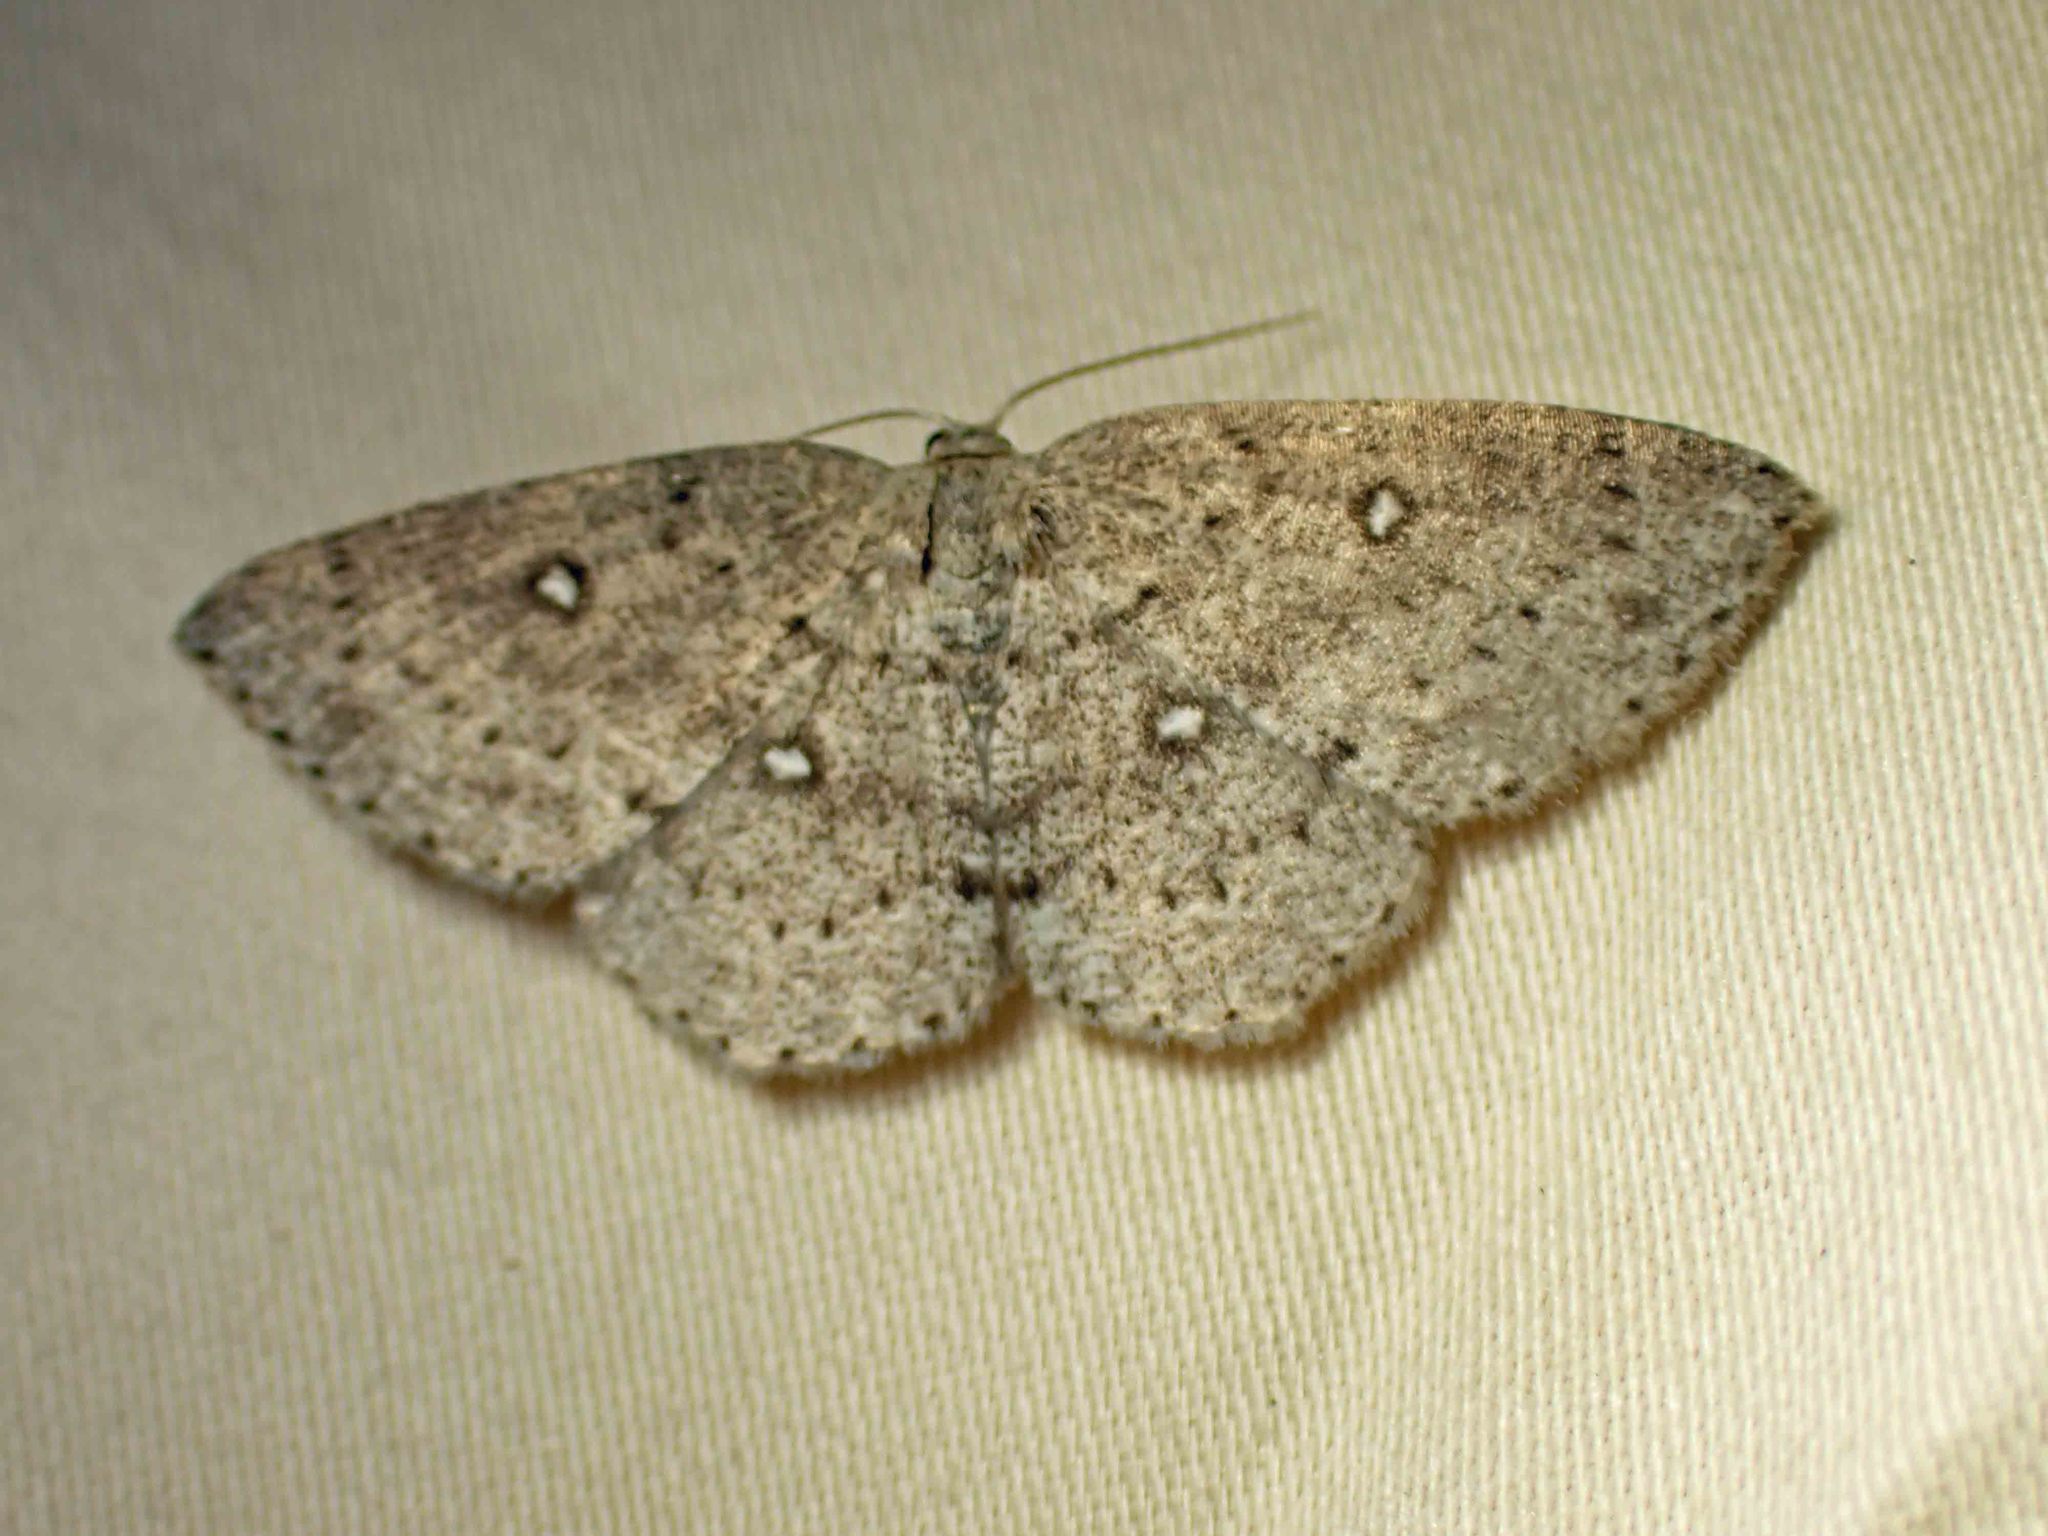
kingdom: Animalia
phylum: Arthropoda
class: Insecta
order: Lepidoptera
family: Geometridae
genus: Cyclophora
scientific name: Cyclophora pendulinaria
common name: Sweet fern geometer
